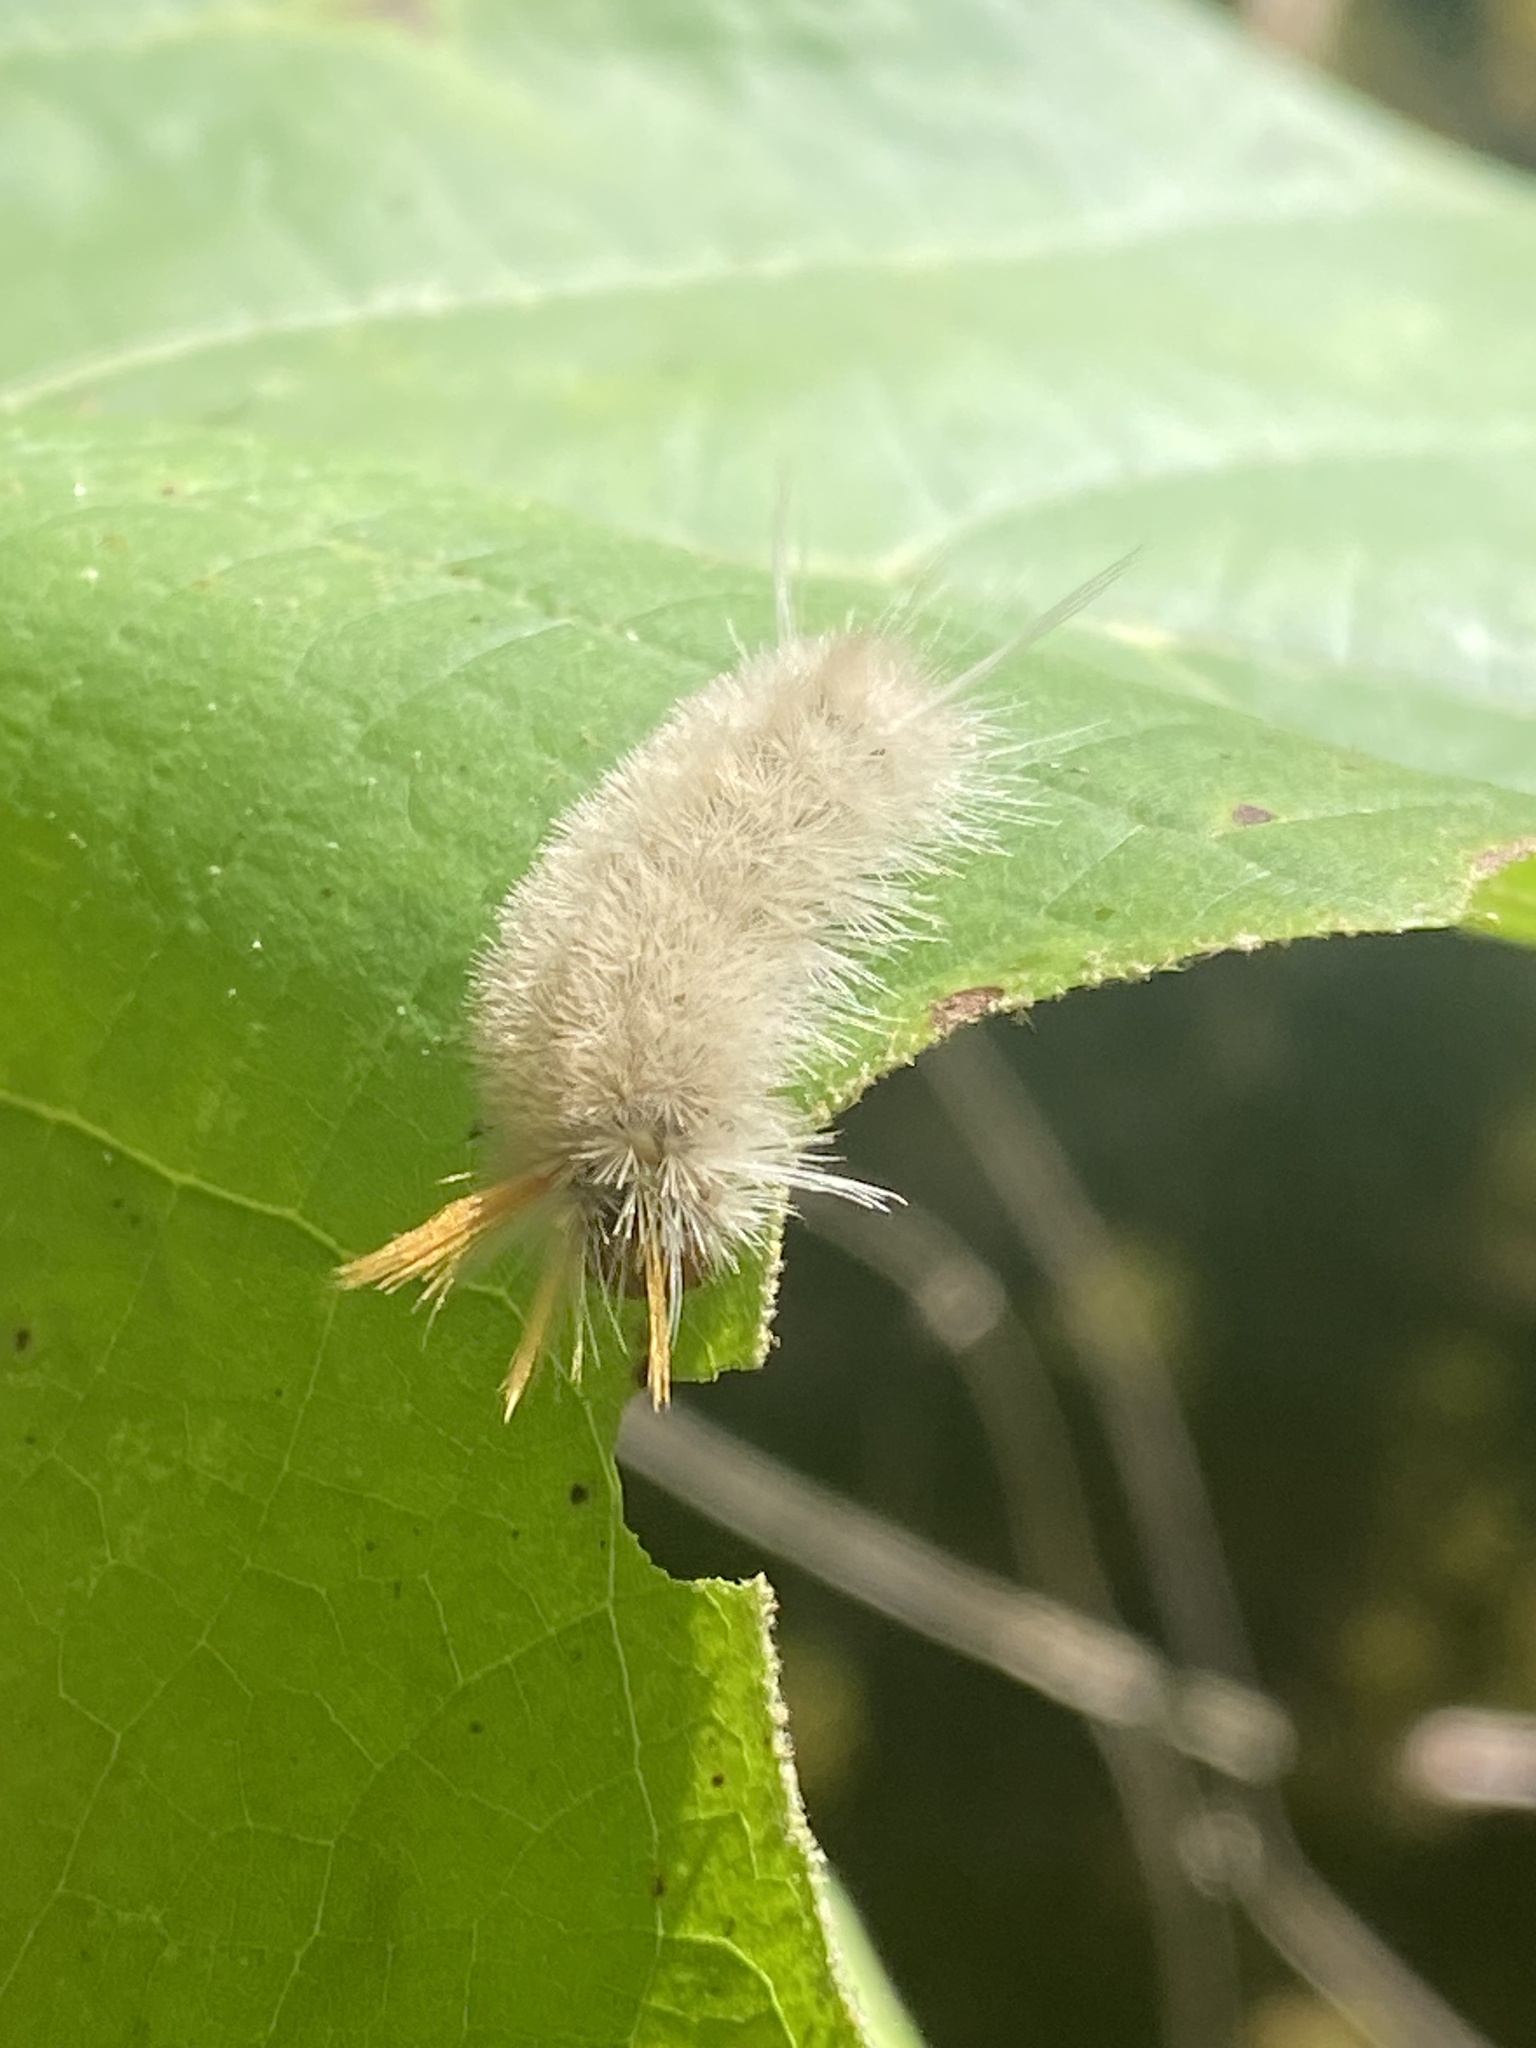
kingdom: Animalia
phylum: Arthropoda
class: Insecta
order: Lepidoptera
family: Erebidae
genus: Halysidota
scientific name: Halysidota harrisii
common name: Sycamore tussock moth
